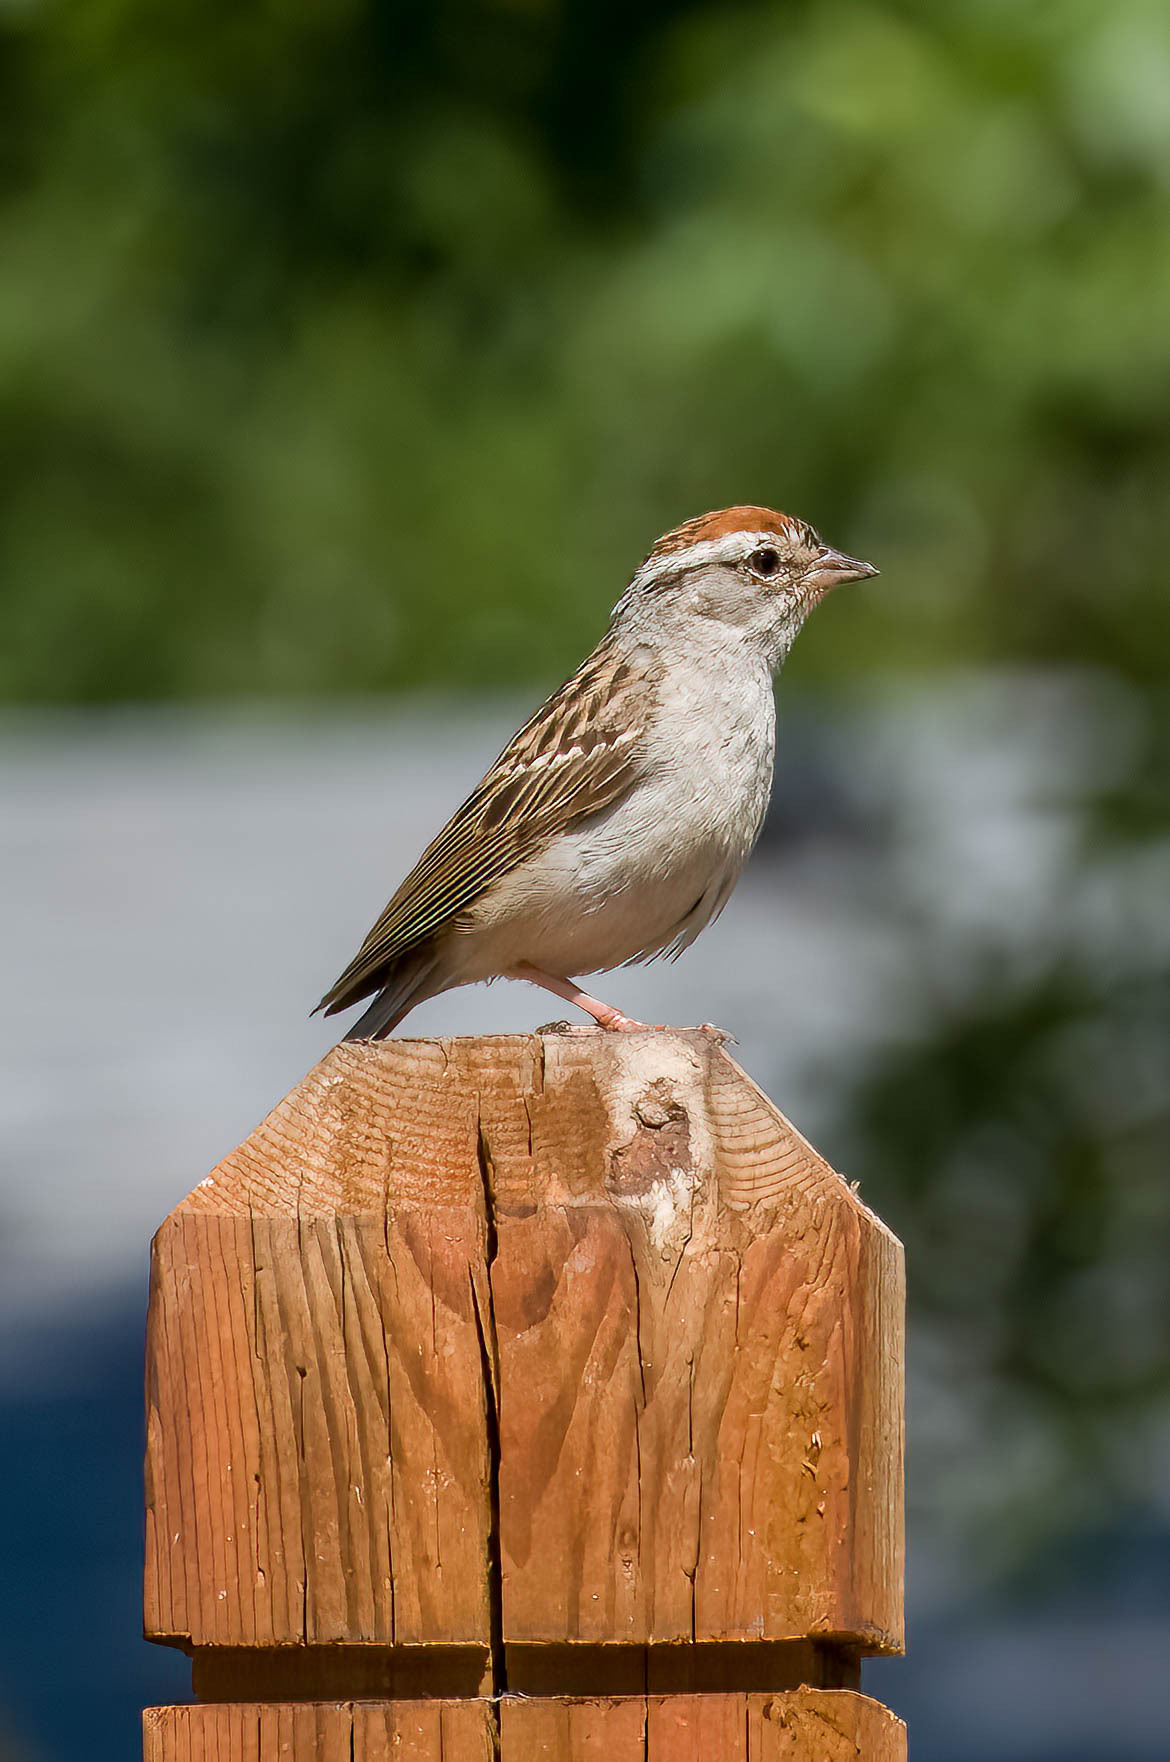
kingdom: Animalia
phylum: Chordata
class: Aves
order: Passeriformes
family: Passerellidae
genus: Spizella
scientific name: Spizella passerina
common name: Chipping sparrow
